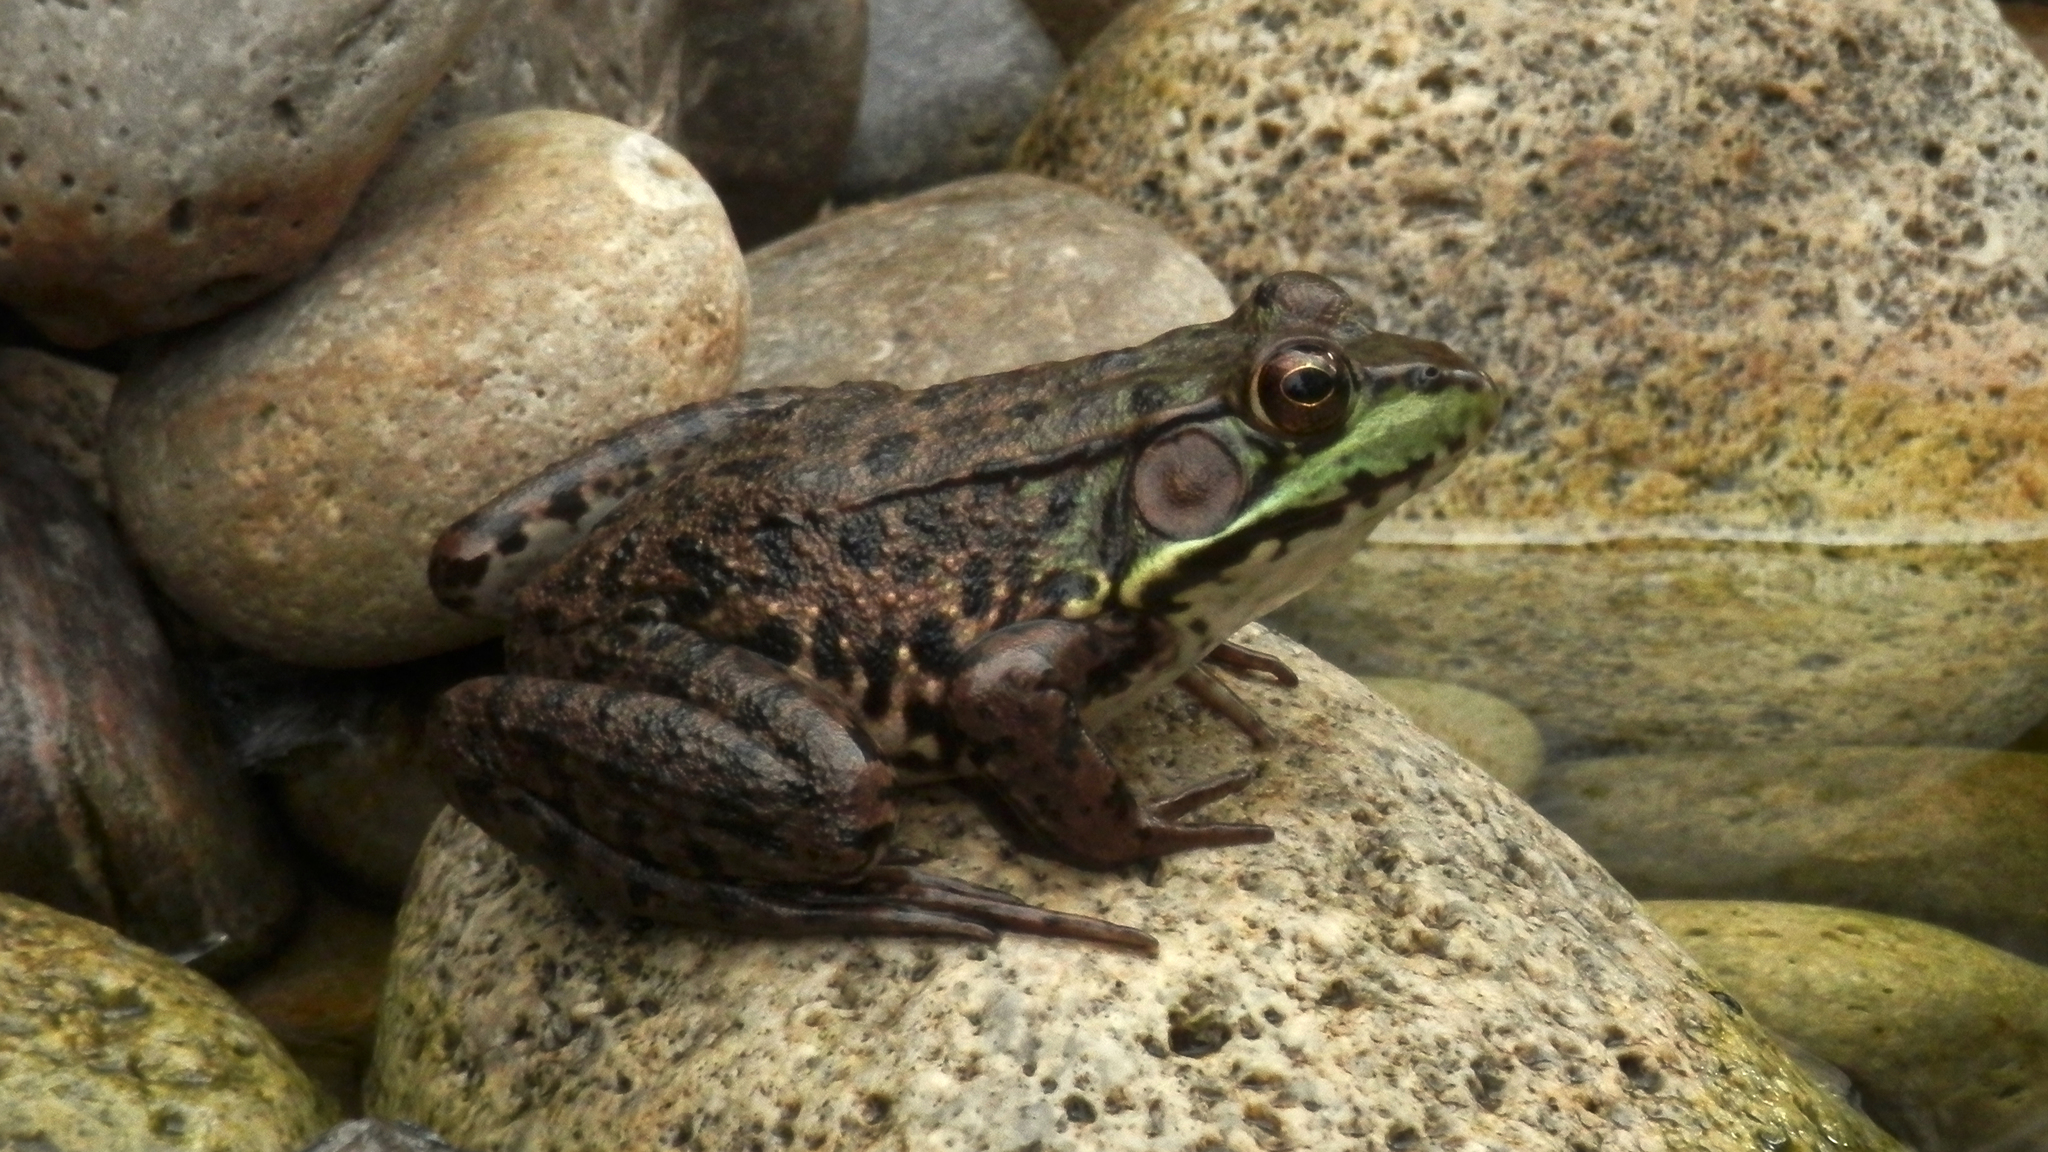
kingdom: Animalia
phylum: Chordata
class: Amphibia
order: Anura
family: Ranidae
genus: Lithobates
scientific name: Lithobates clamitans
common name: Green frog
